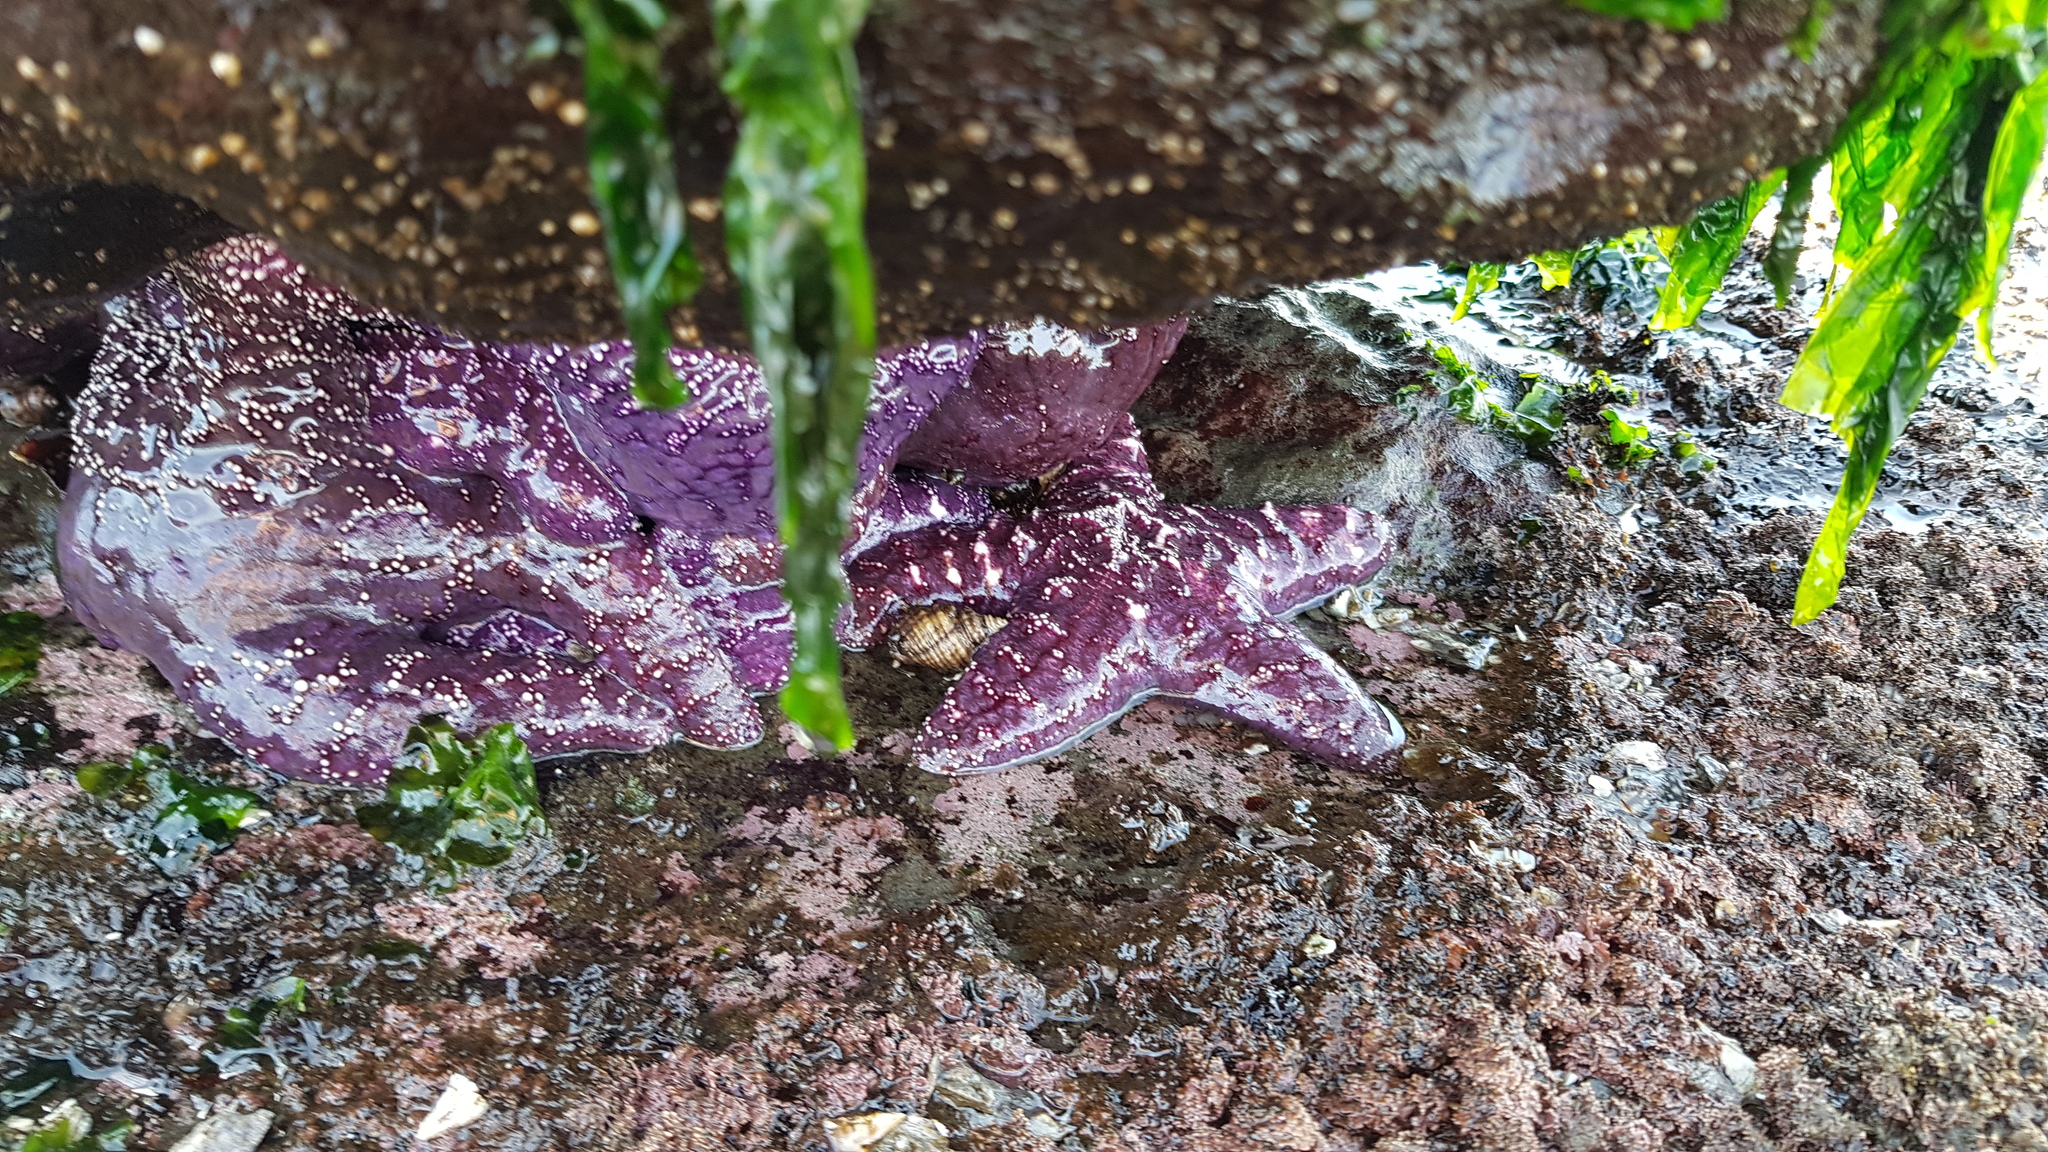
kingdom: Animalia
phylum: Echinodermata
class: Asteroidea
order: Forcipulatida
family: Asteriidae
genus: Pisaster
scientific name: Pisaster ochraceus
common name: Ochre stars
